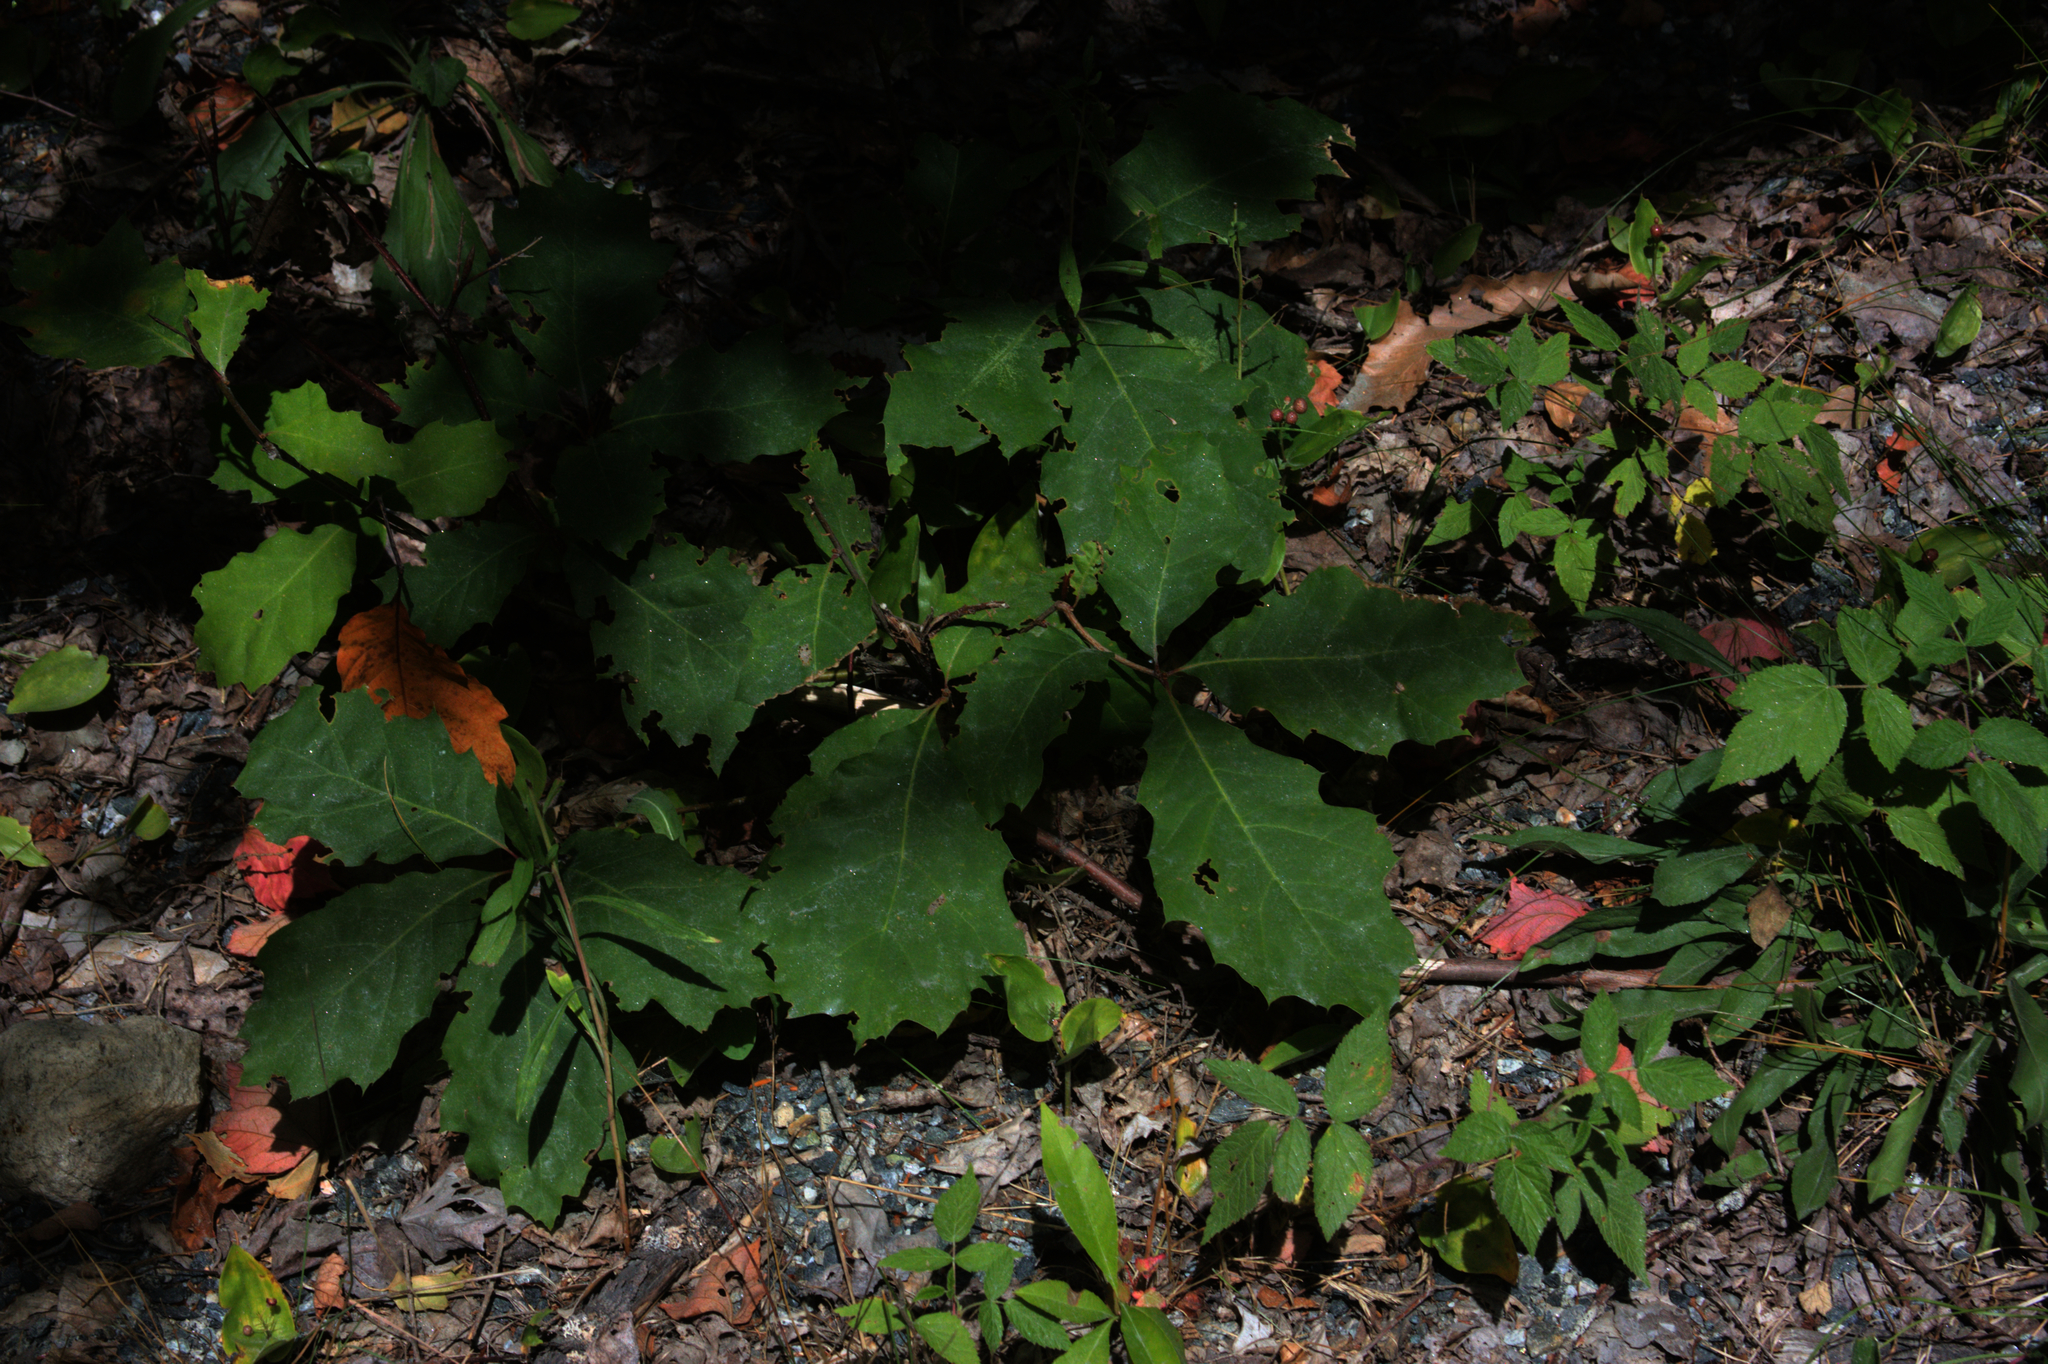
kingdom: Plantae
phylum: Tracheophyta
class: Magnoliopsida
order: Fagales
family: Fagaceae
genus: Quercus
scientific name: Quercus rubra
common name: Red oak
